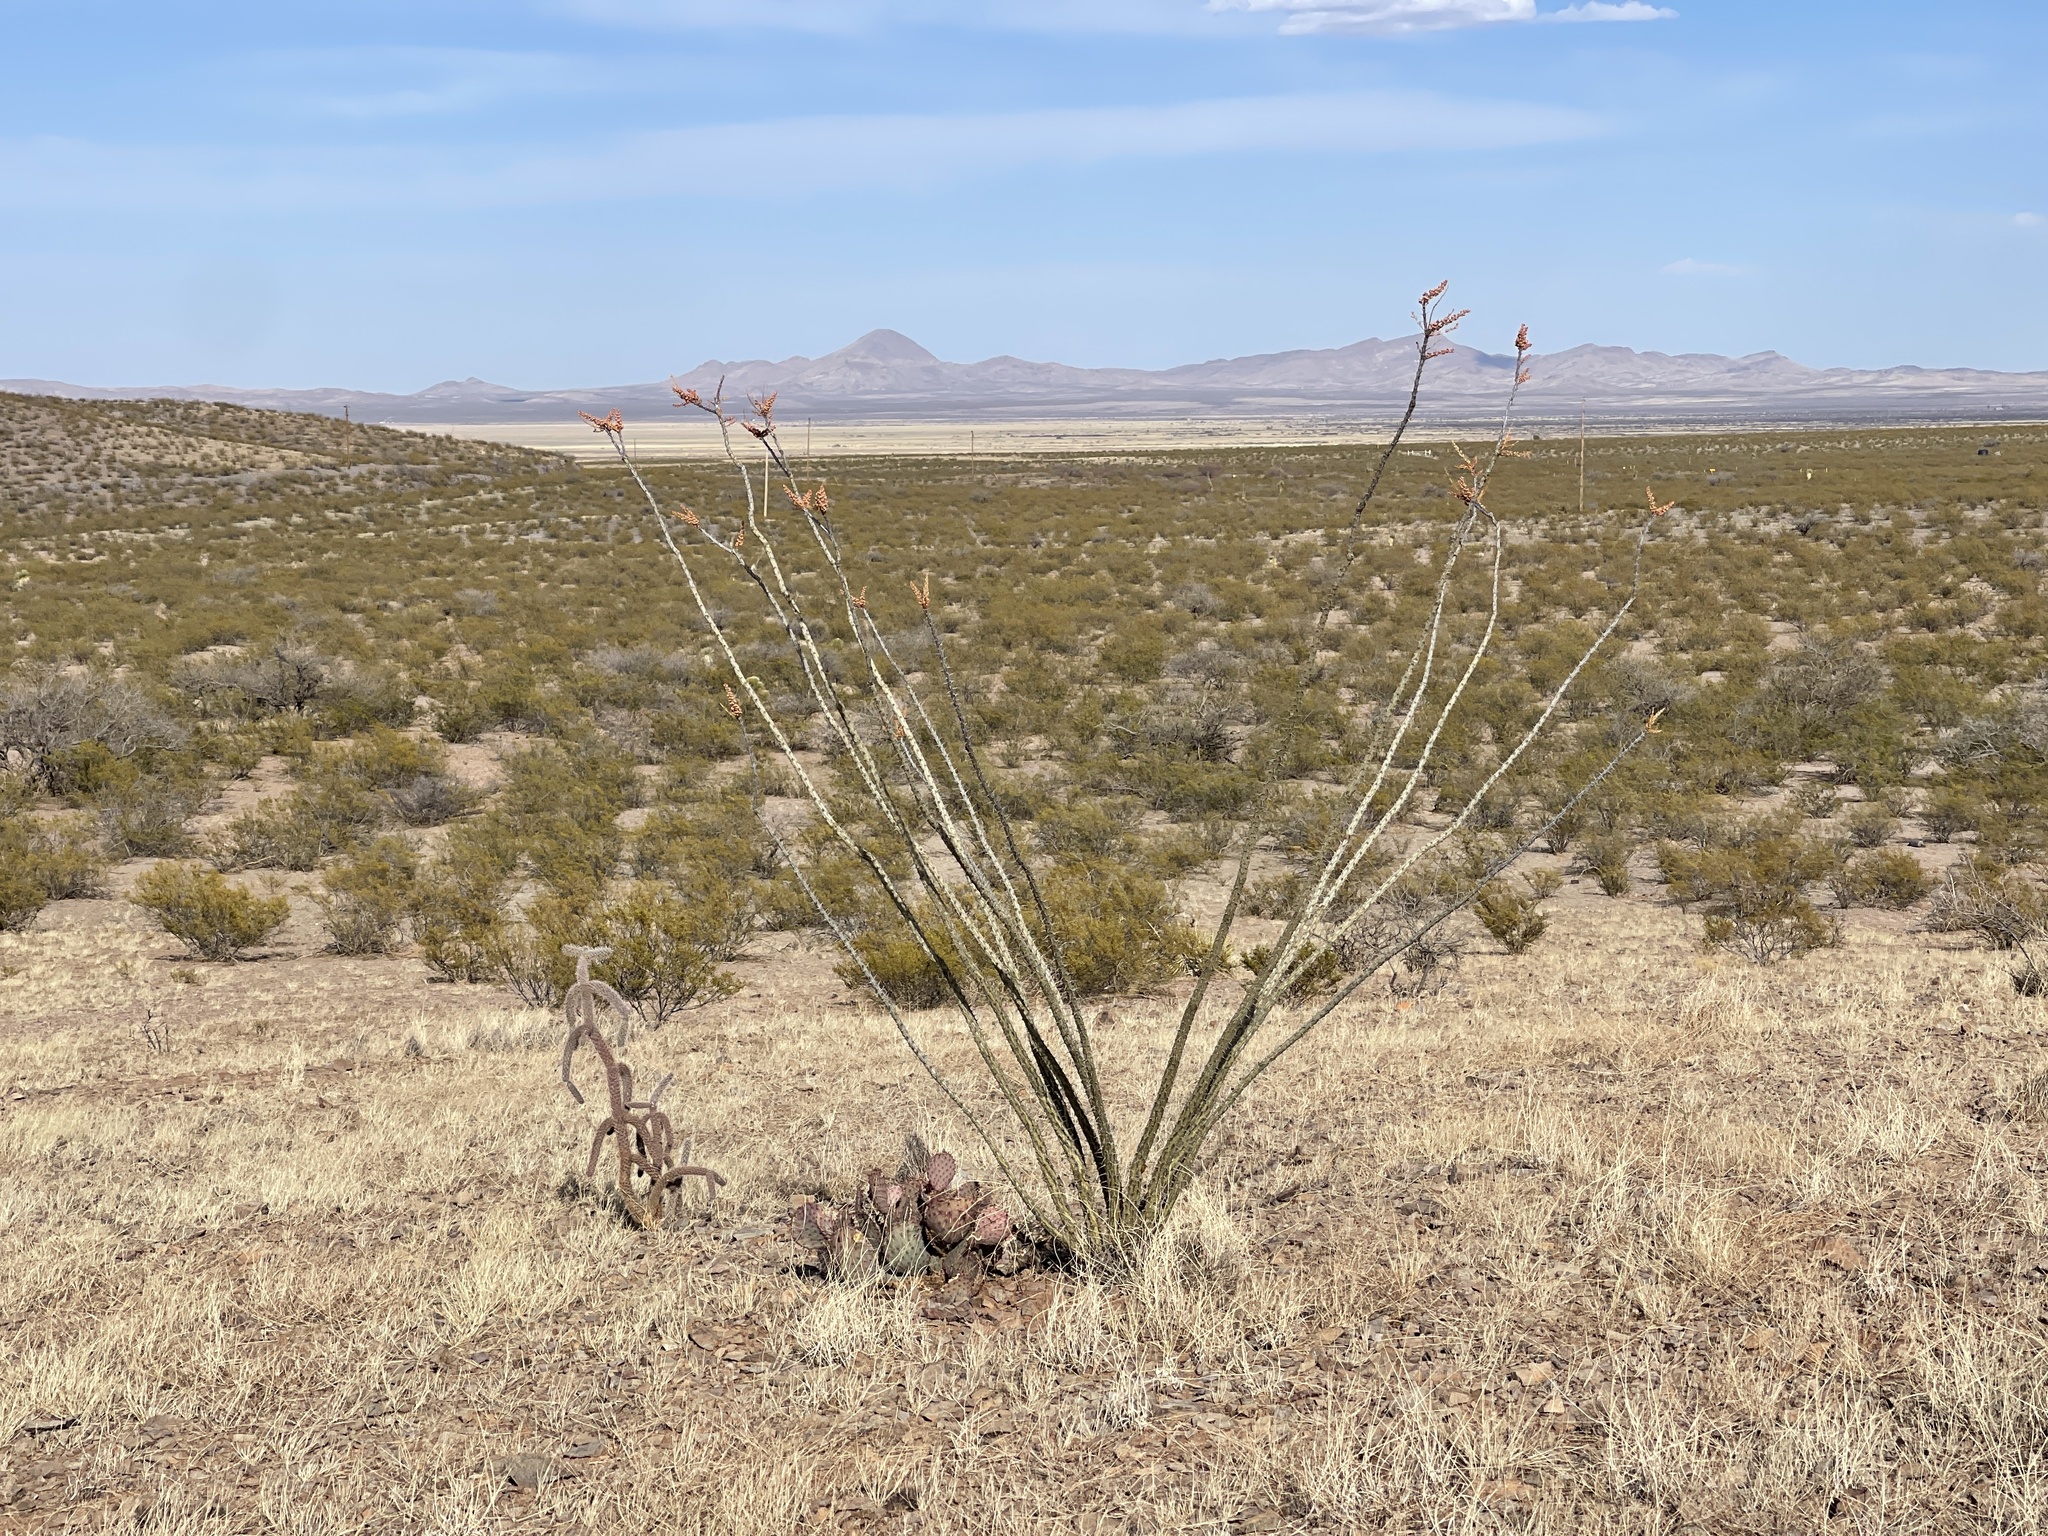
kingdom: Plantae
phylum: Tracheophyta
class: Magnoliopsida
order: Ericales
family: Fouquieriaceae
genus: Fouquieria
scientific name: Fouquieria splendens
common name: Vine-cactus
